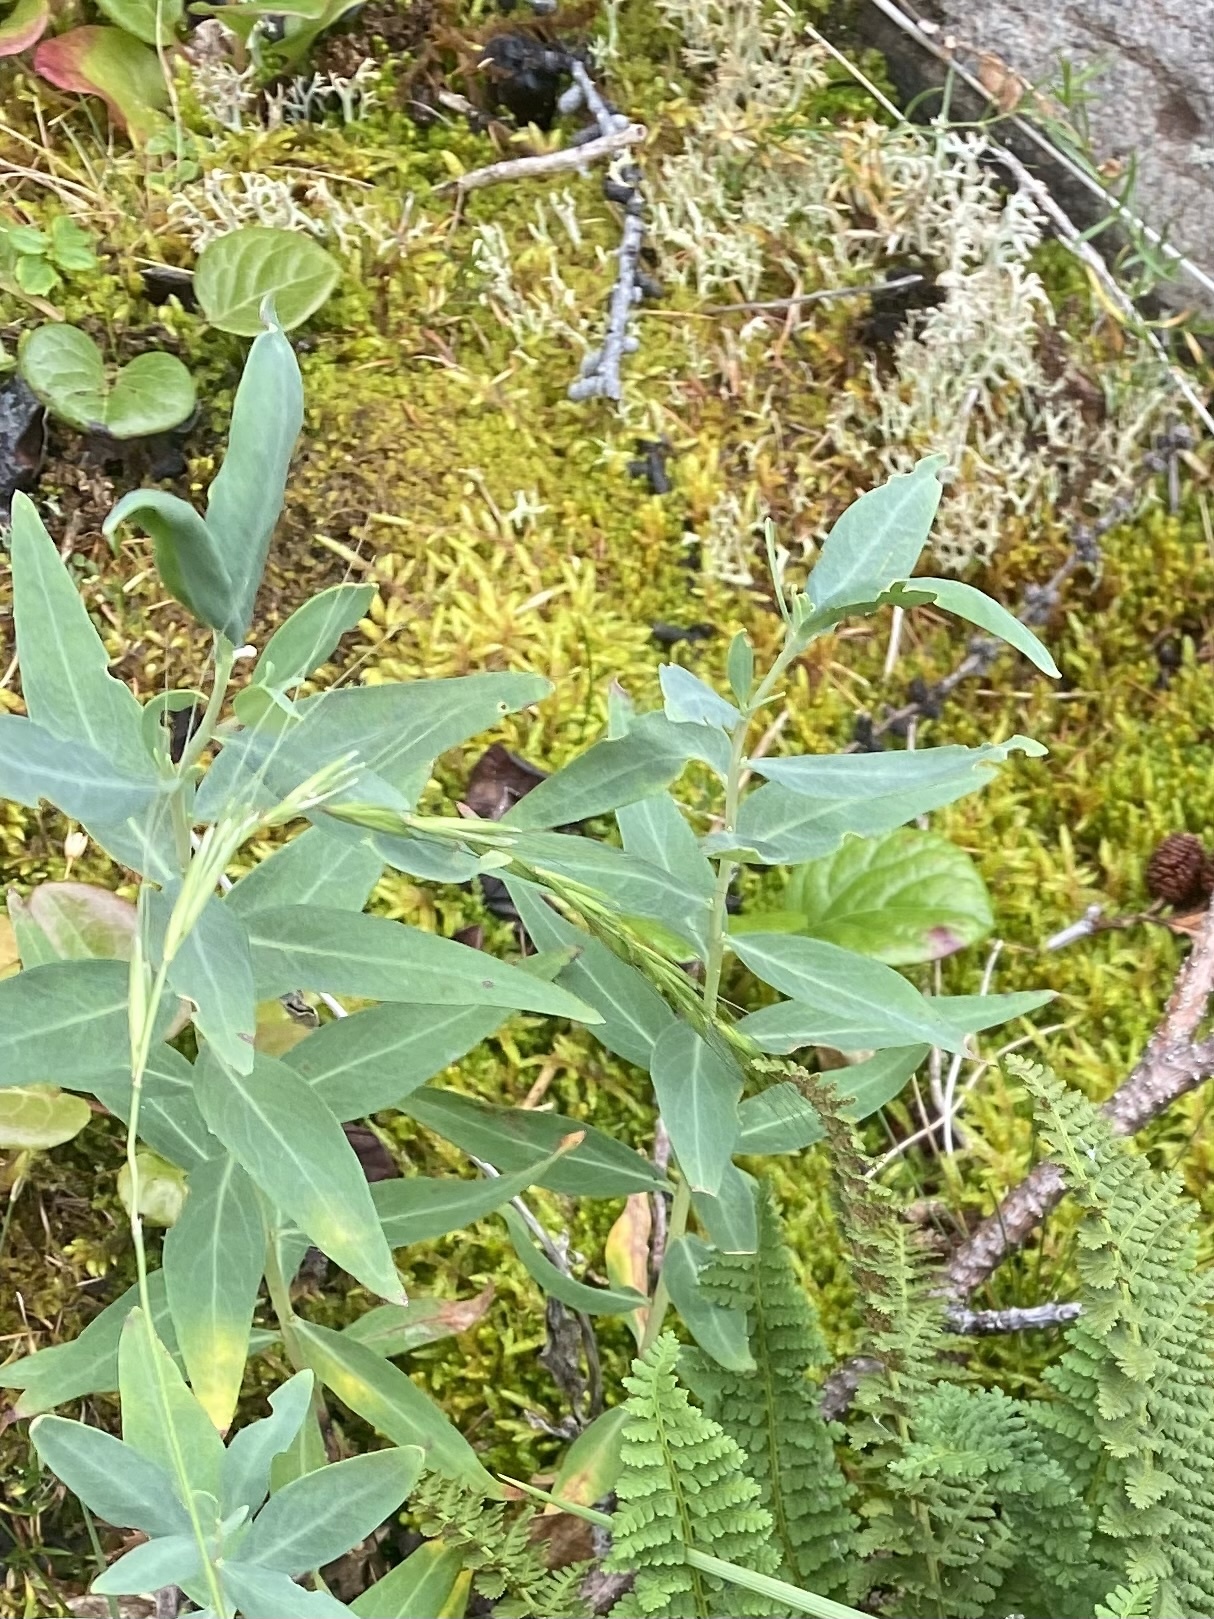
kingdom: Plantae
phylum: Tracheophyta
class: Magnoliopsida
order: Myrtales
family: Onagraceae
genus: Chamaenerion
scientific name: Chamaenerion latifolium
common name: Dwarf fireweed
